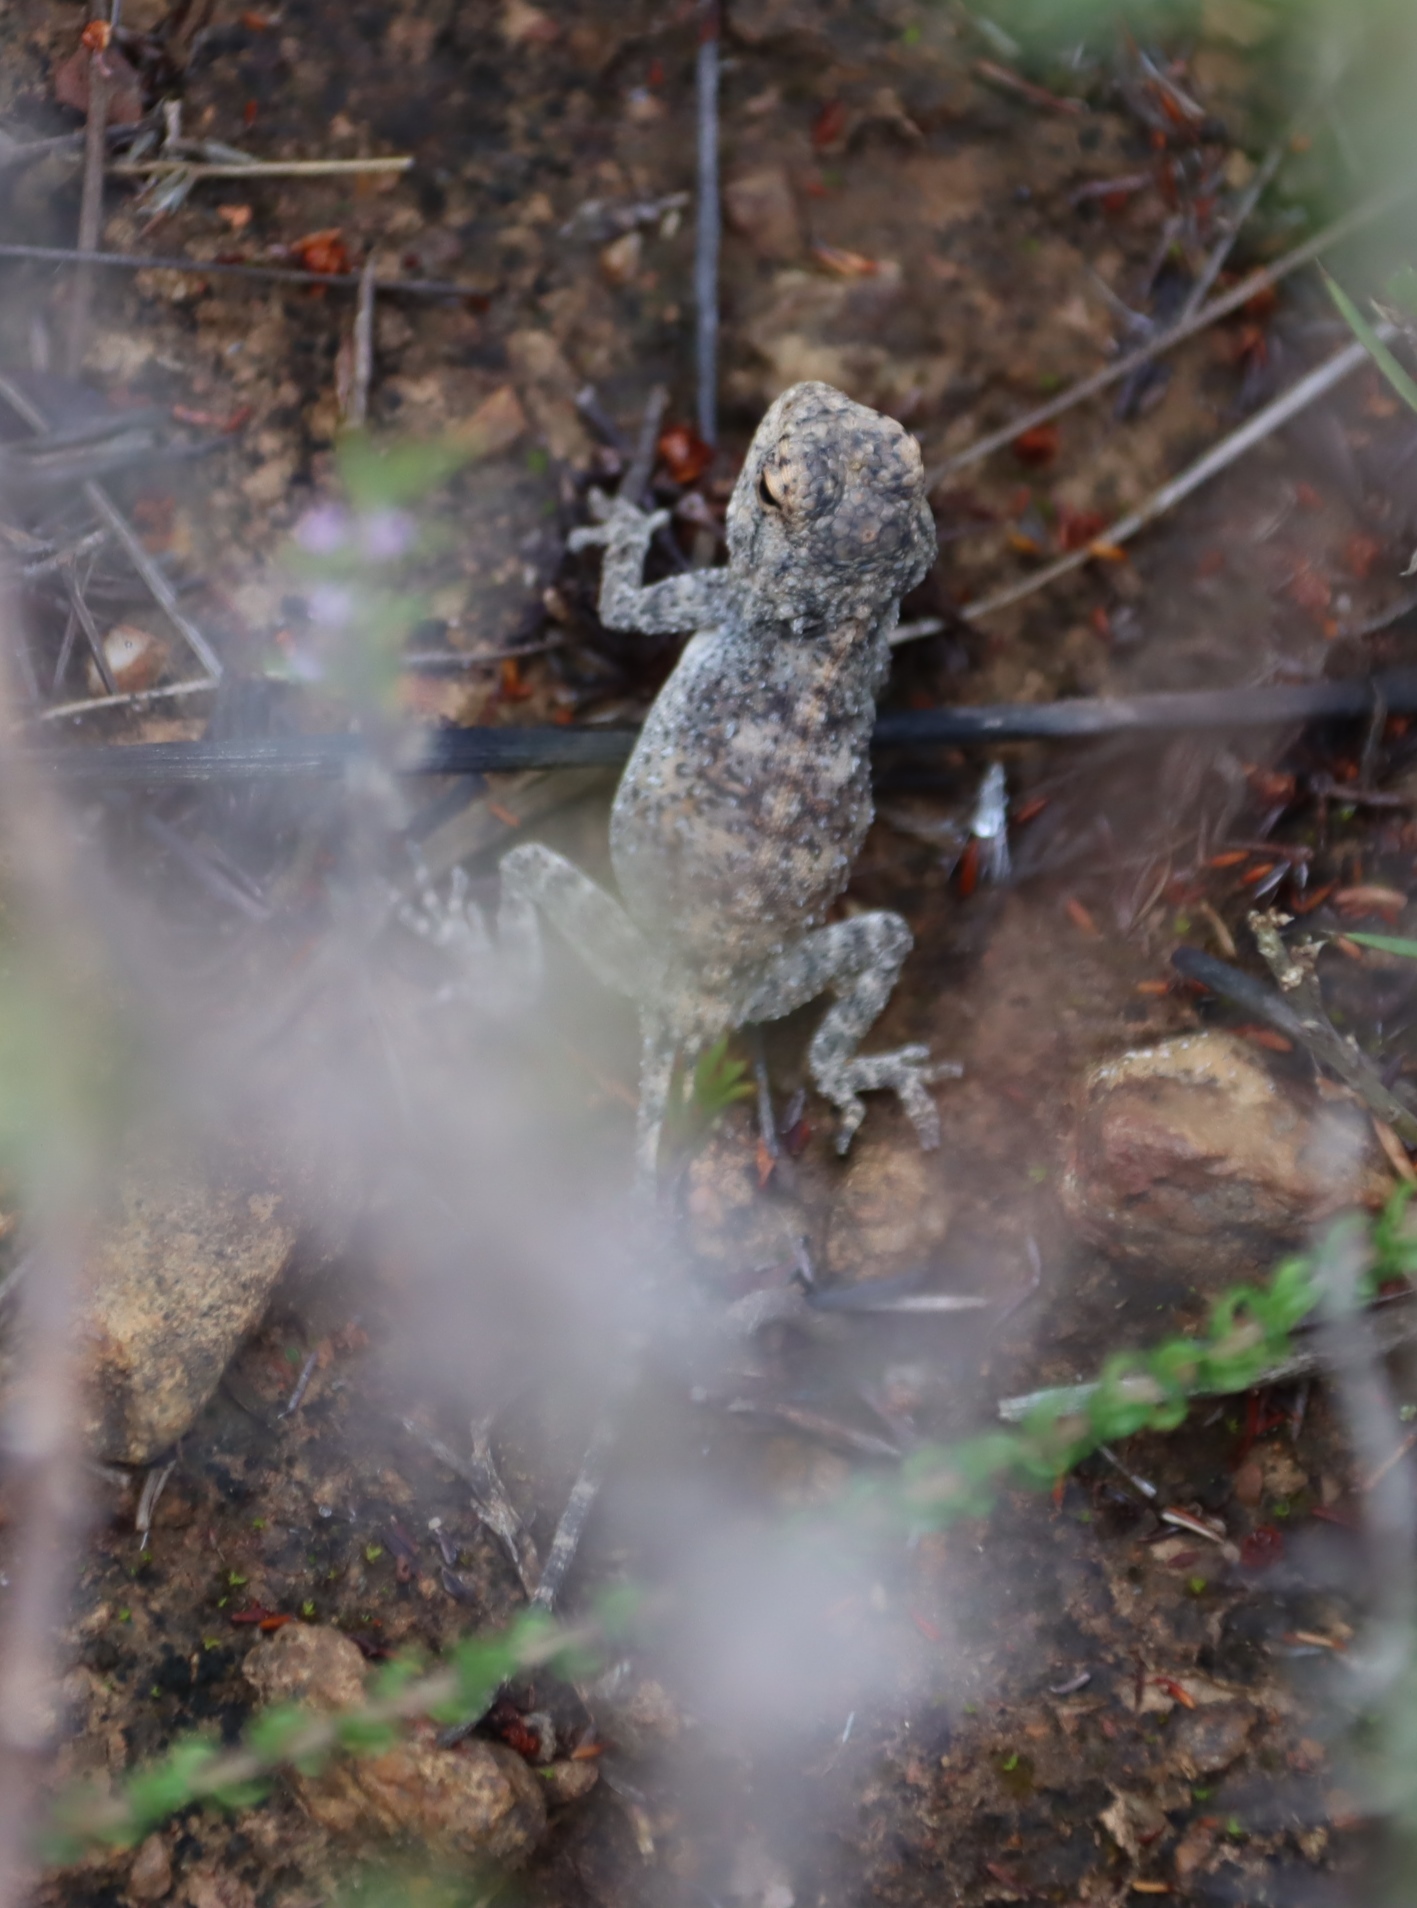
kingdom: Animalia
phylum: Chordata
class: Squamata
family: Agamidae
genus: Agama
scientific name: Agama atra
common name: Southern african rock agama
